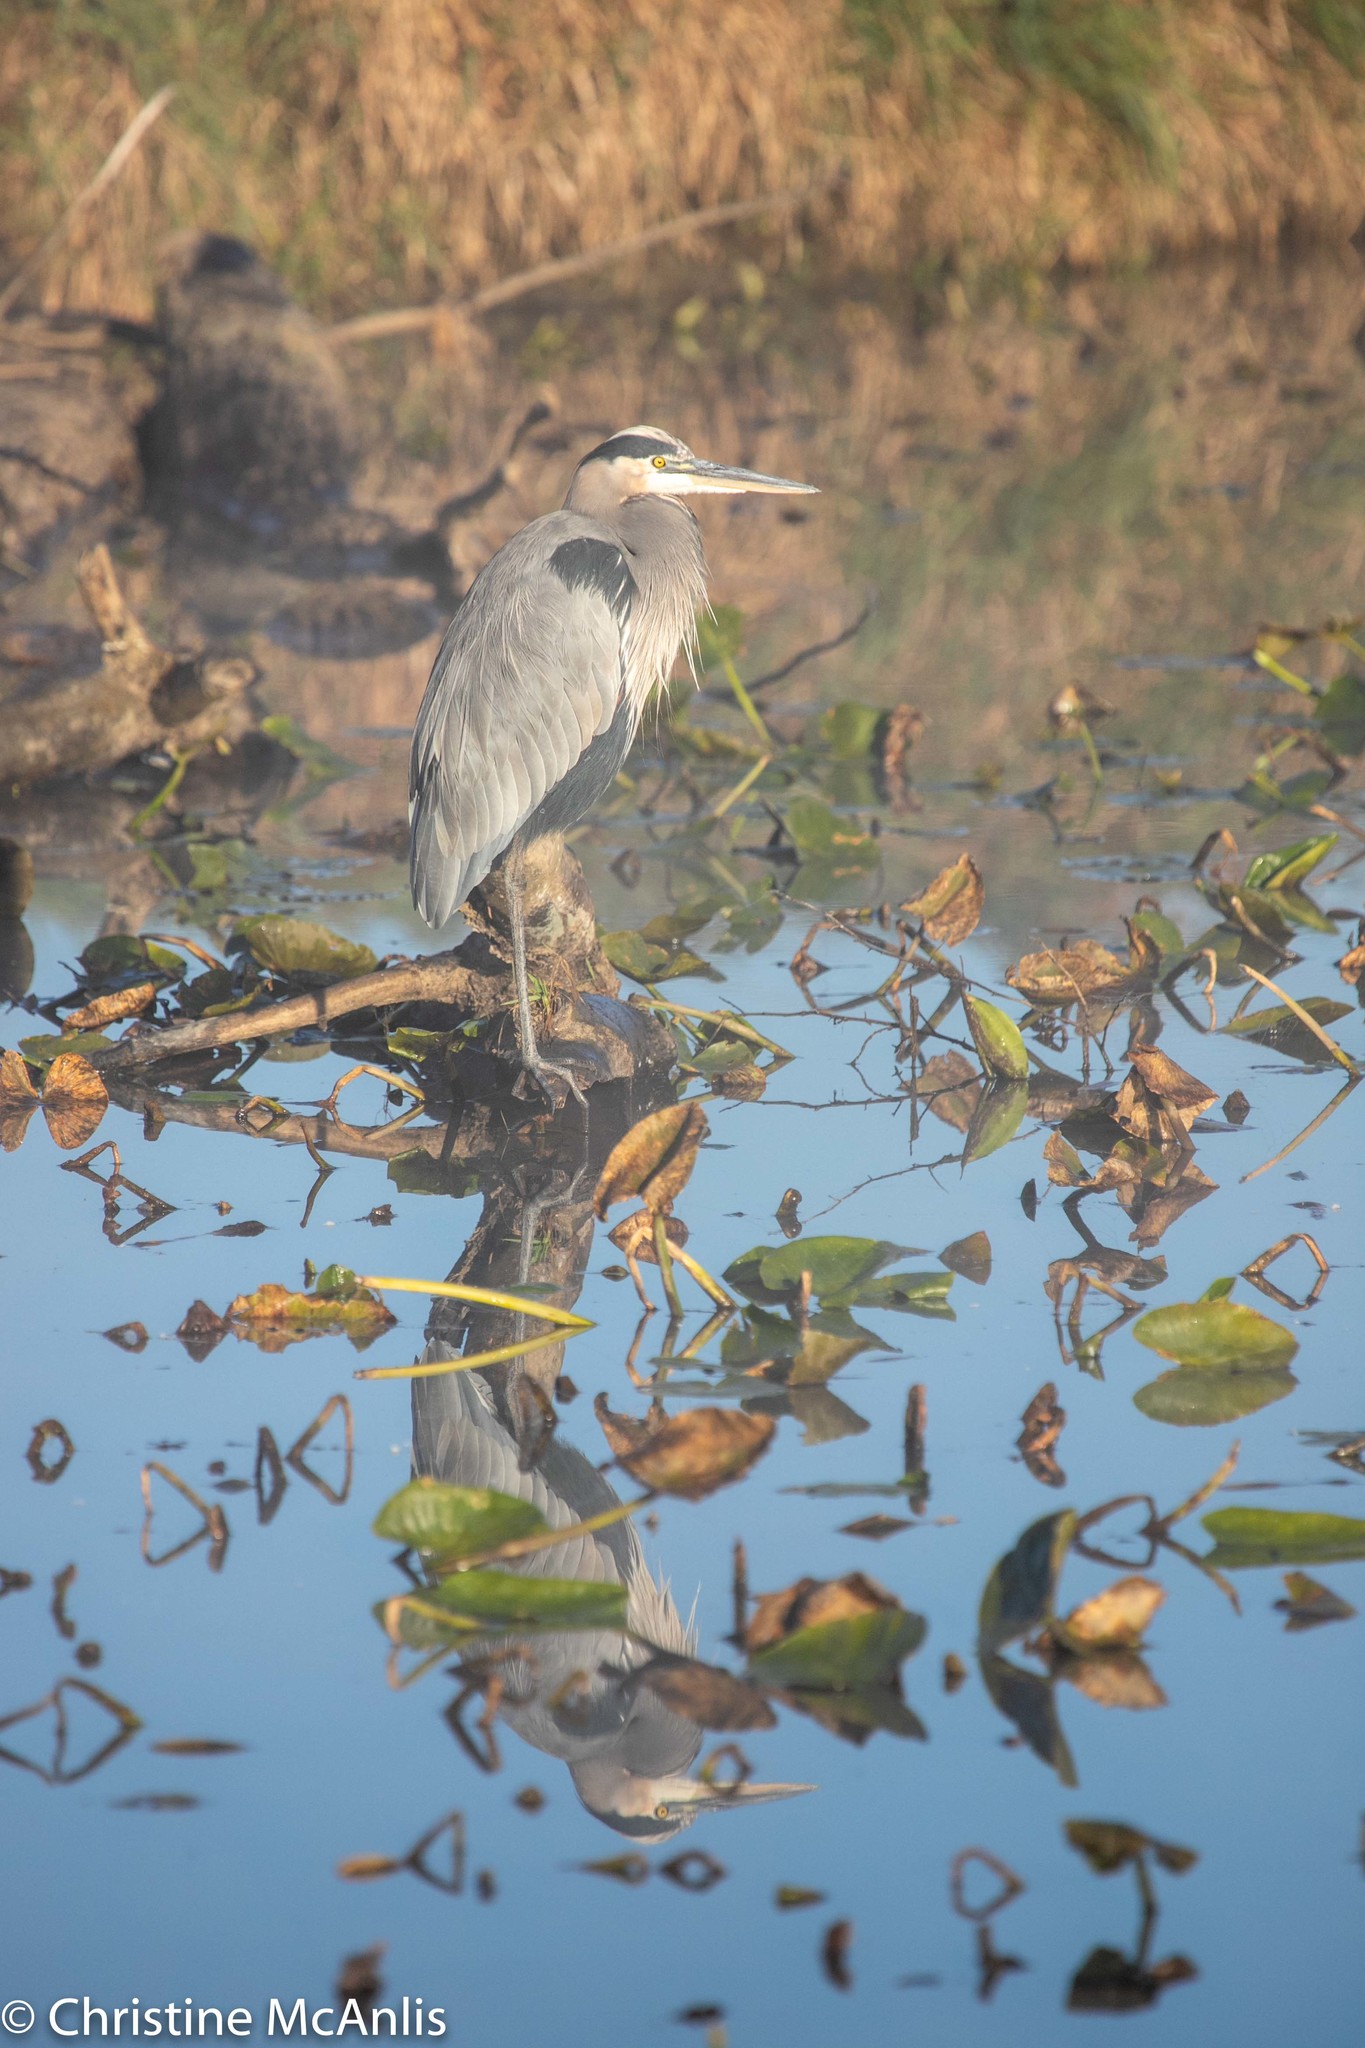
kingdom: Animalia
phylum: Chordata
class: Aves
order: Pelecaniformes
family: Ardeidae
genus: Ardea
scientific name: Ardea herodias
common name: Great blue heron
